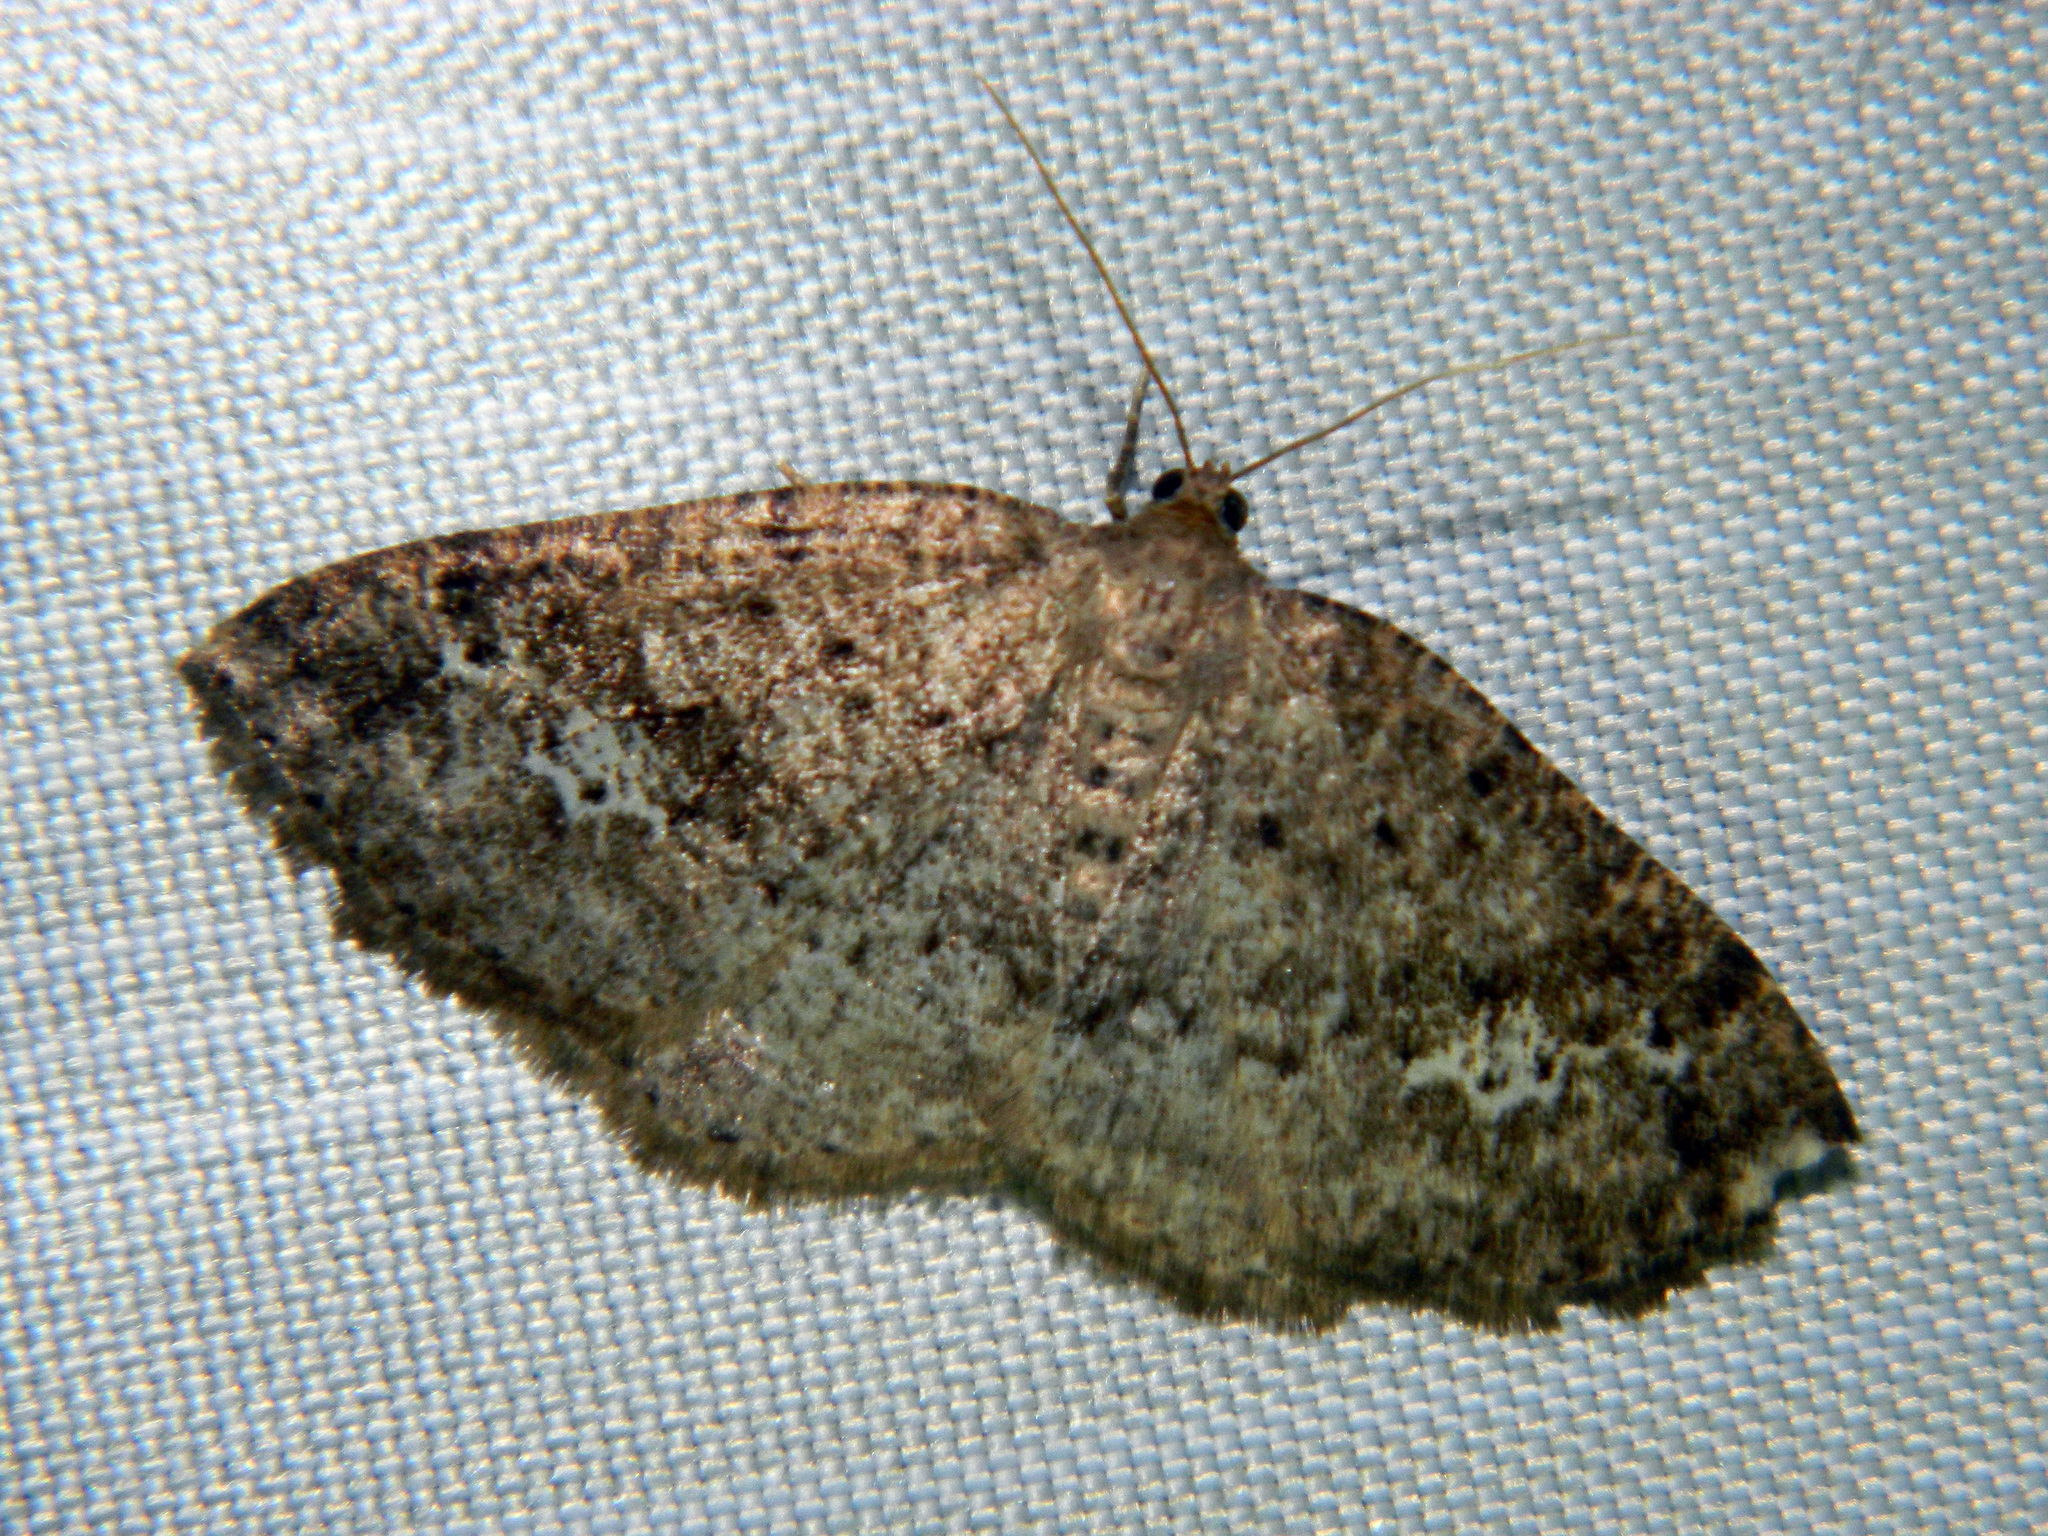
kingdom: Animalia
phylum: Arthropoda
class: Insecta
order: Lepidoptera
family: Geometridae
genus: Homochlodes
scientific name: Homochlodes fritillaria
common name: Pale homochlodes
